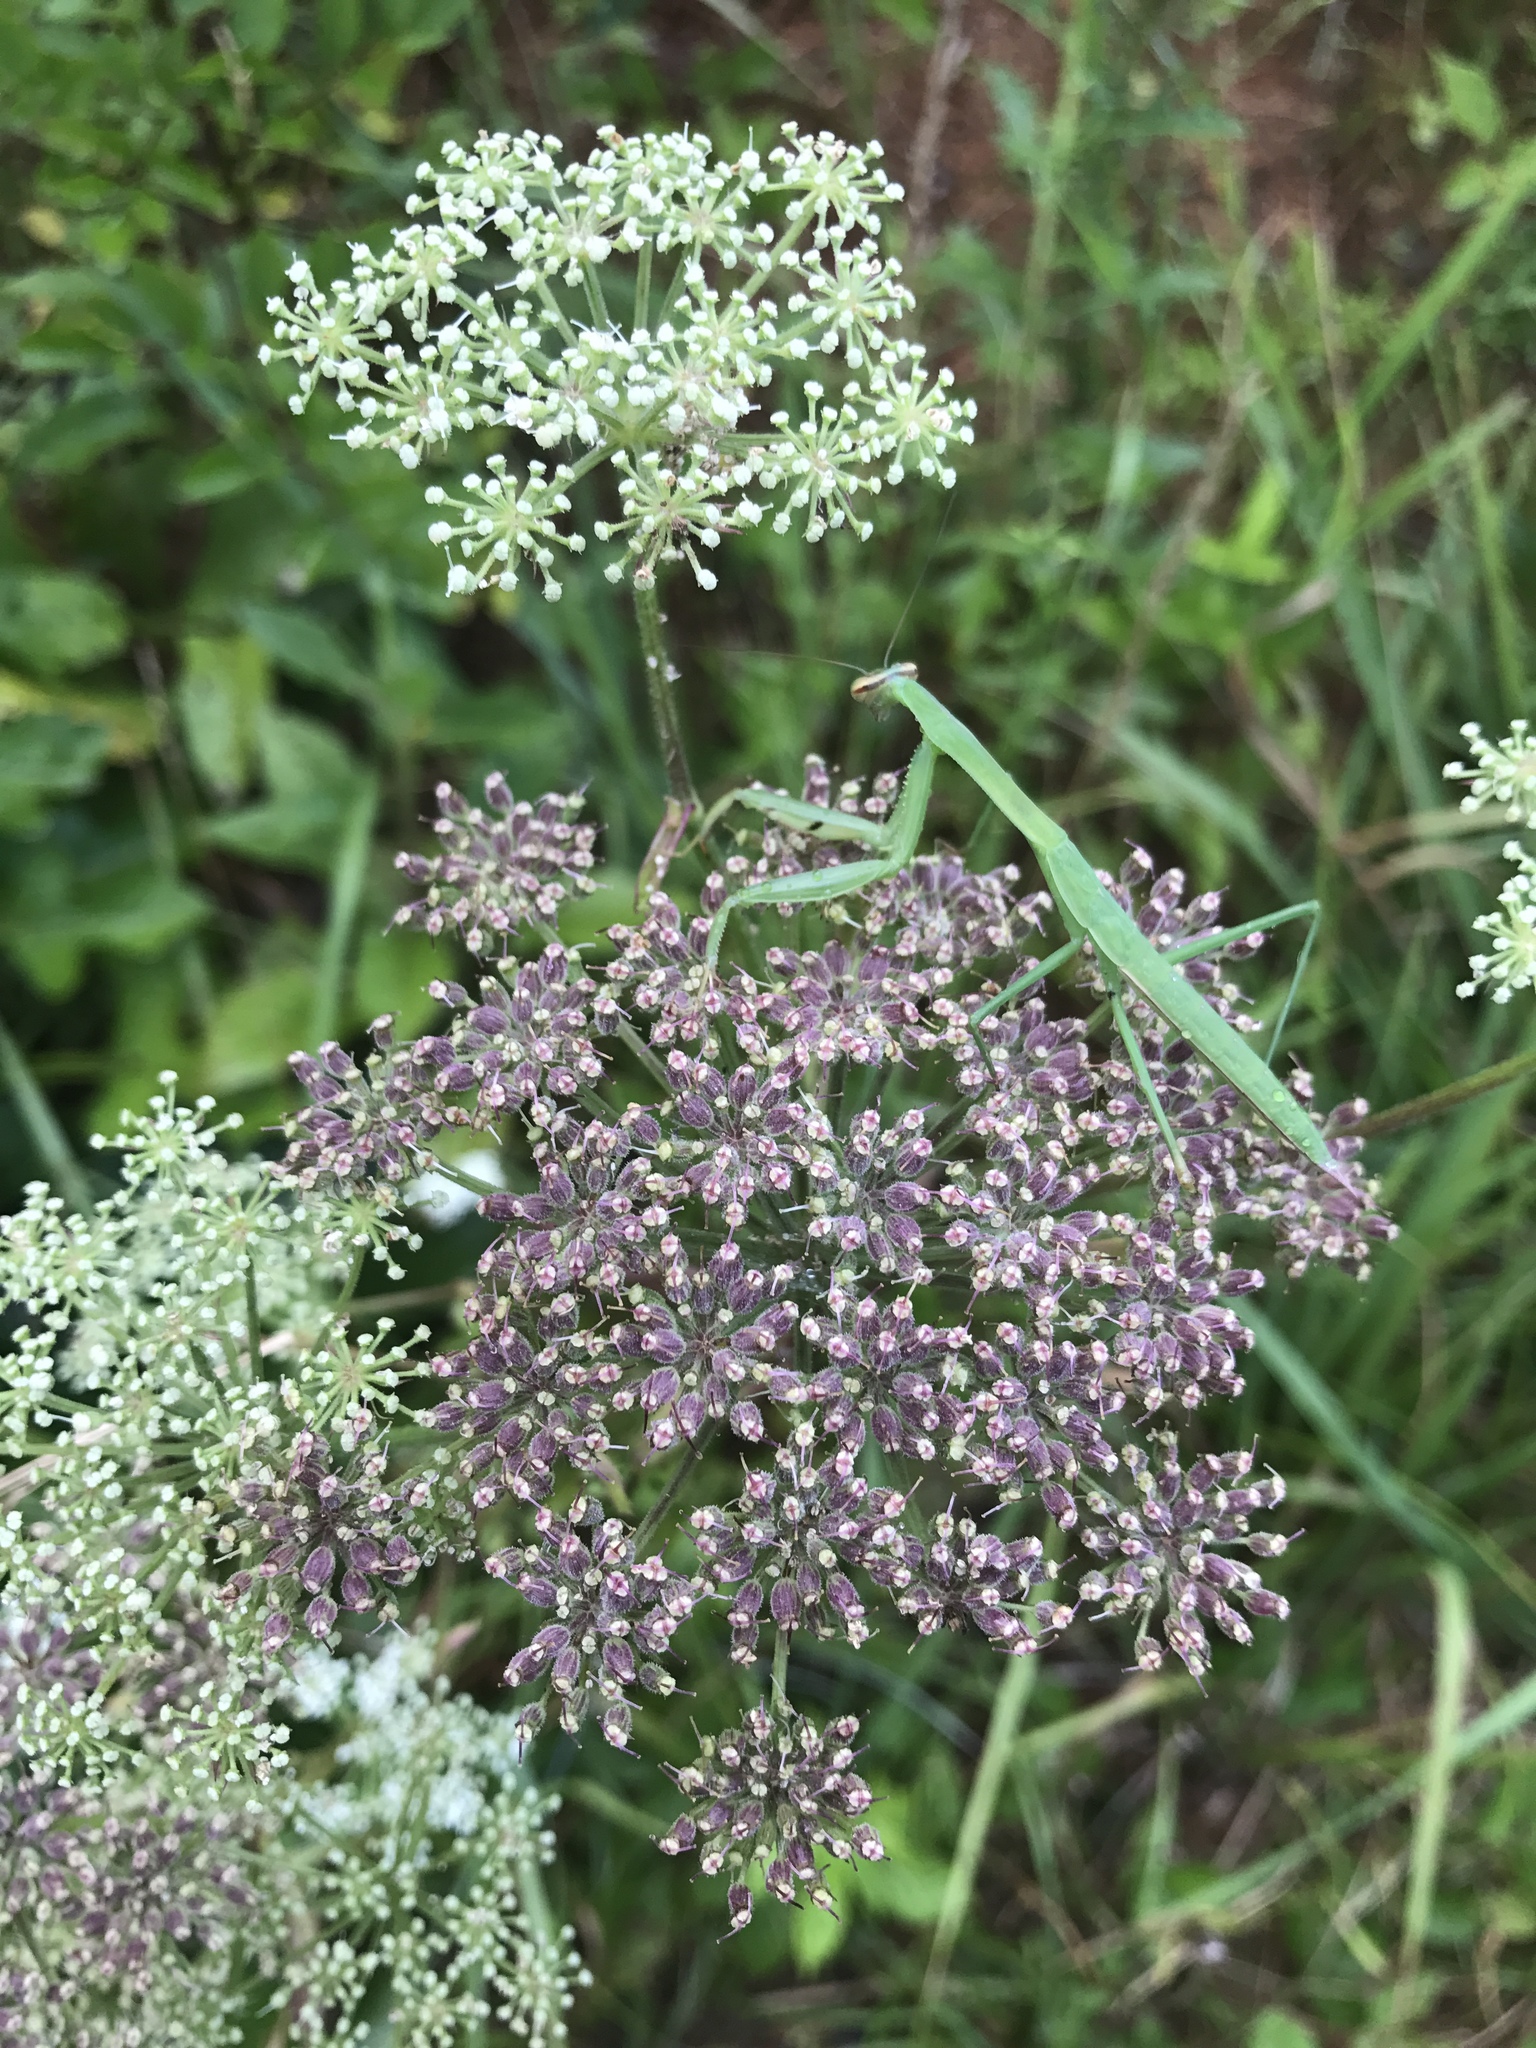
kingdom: Plantae
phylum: Tracheophyta
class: Magnoliopsida
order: Apiales
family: Apiaceae
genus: Angelica
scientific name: Angelica venenosa
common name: Hairy angelica
